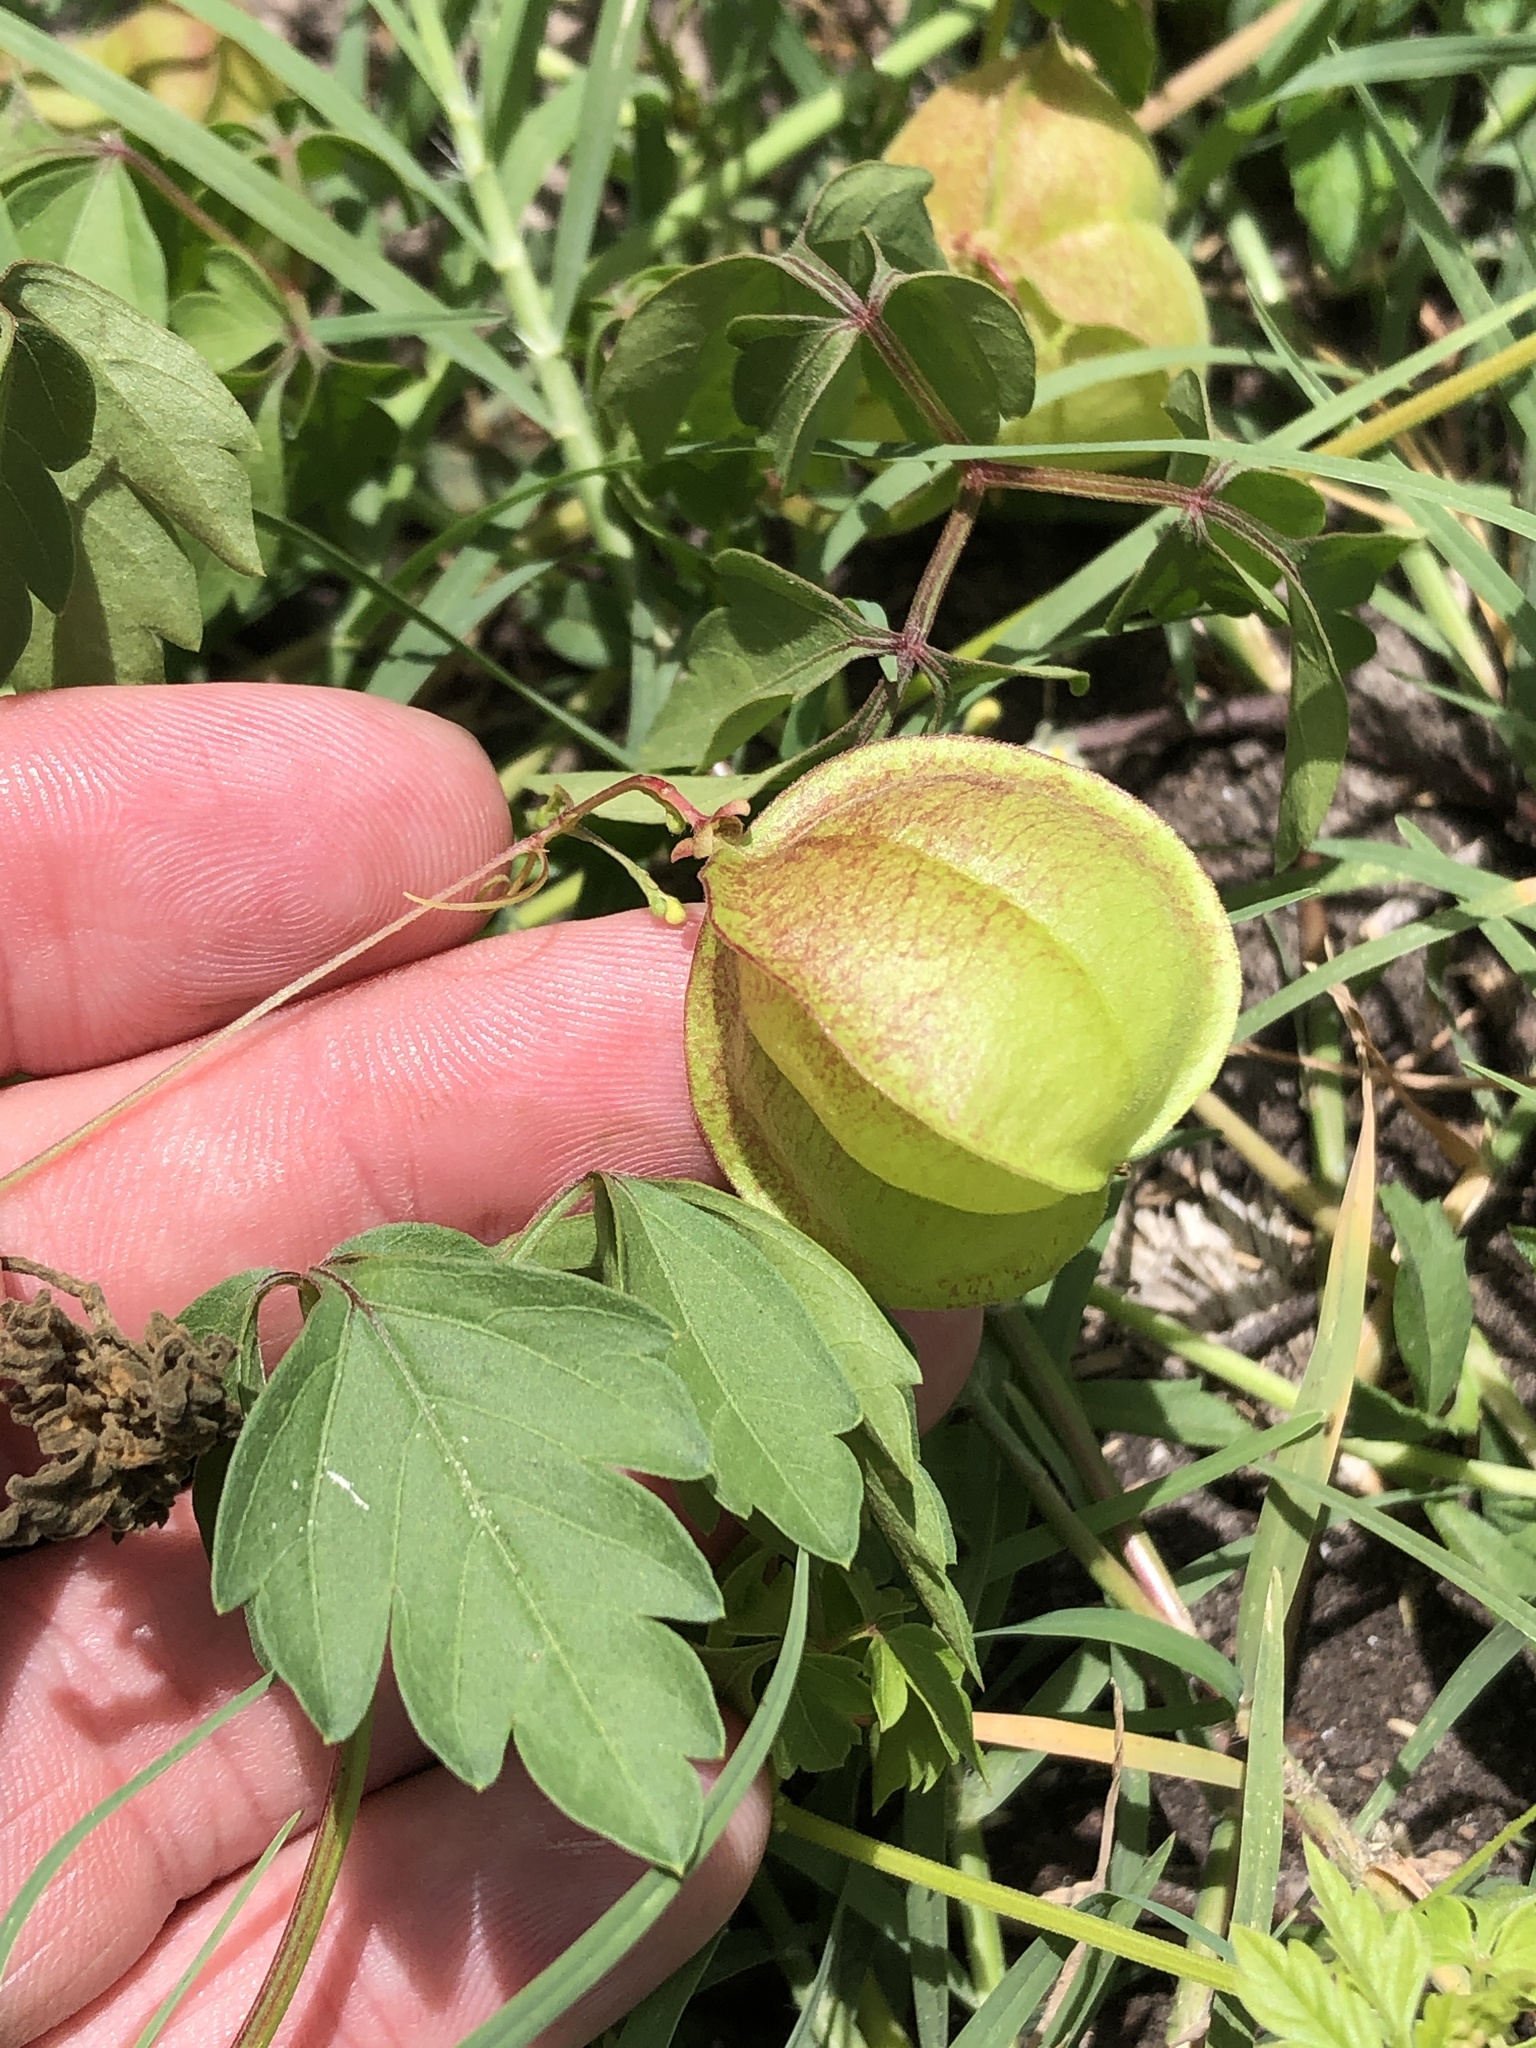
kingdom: Plantae
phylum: Tracheophyta
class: Magnoliopsida
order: Sapindales
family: Sapindaceae
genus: Cardiospermum
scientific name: Cardiospermum halicacabum
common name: Balloon vine
